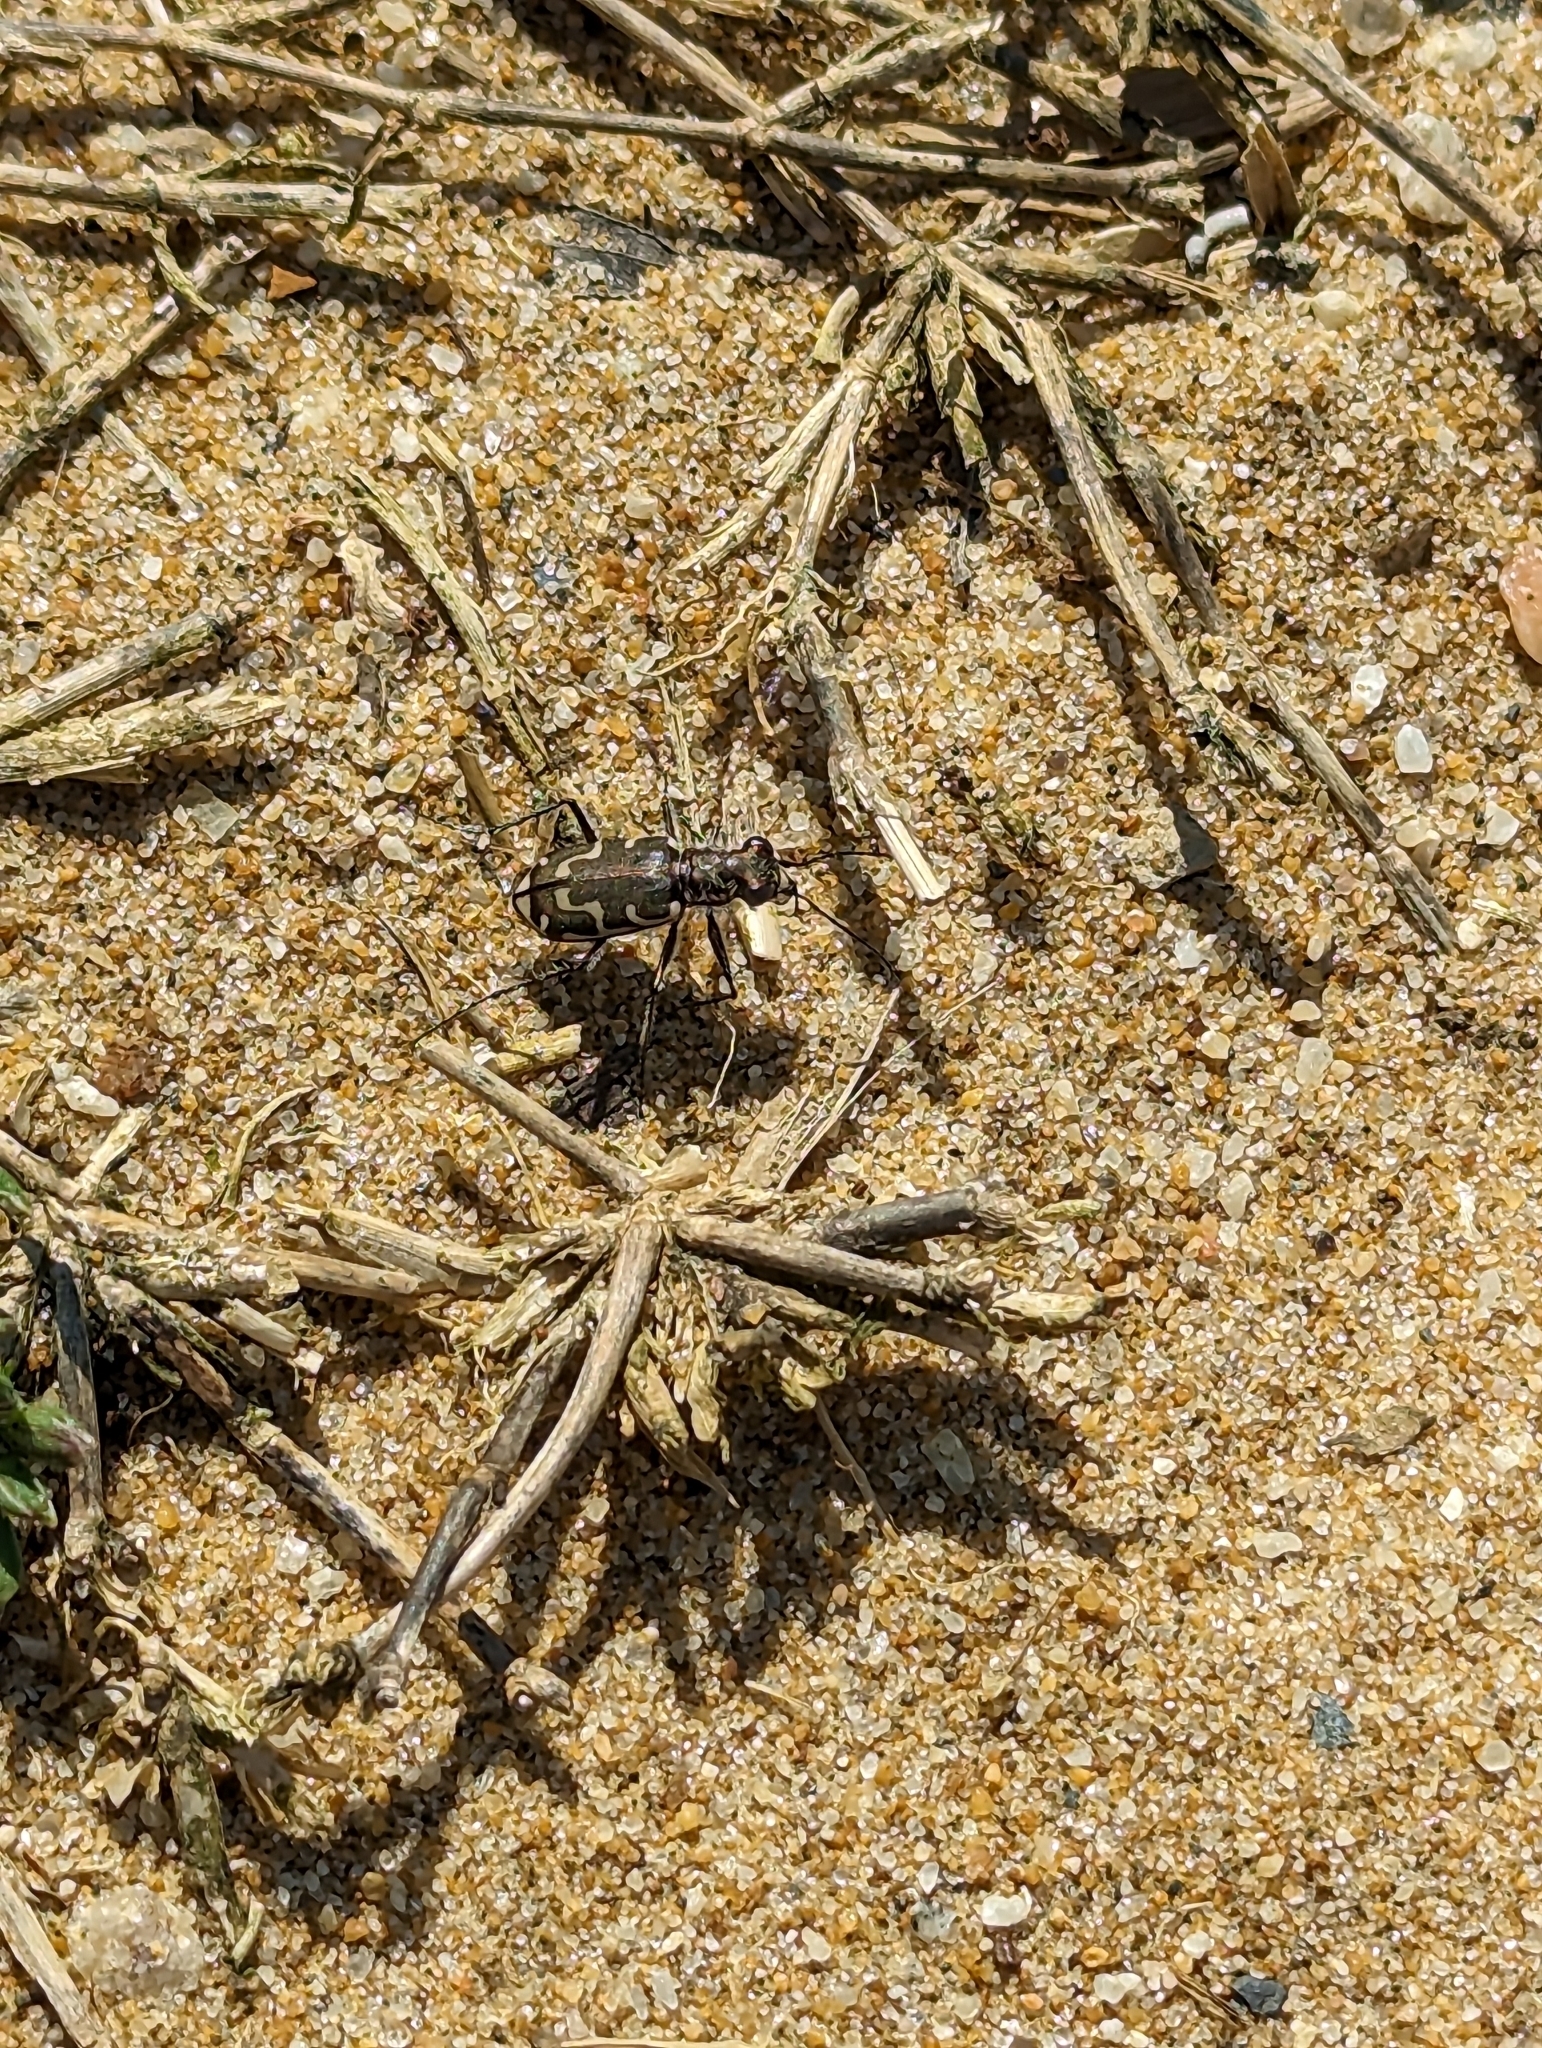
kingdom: Animalia
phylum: Arthropoda
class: Insecta
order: Coleoptera
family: Carabidae
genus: Cicindela
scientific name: Cicindela repanda
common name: Bronzed tiger beetle
